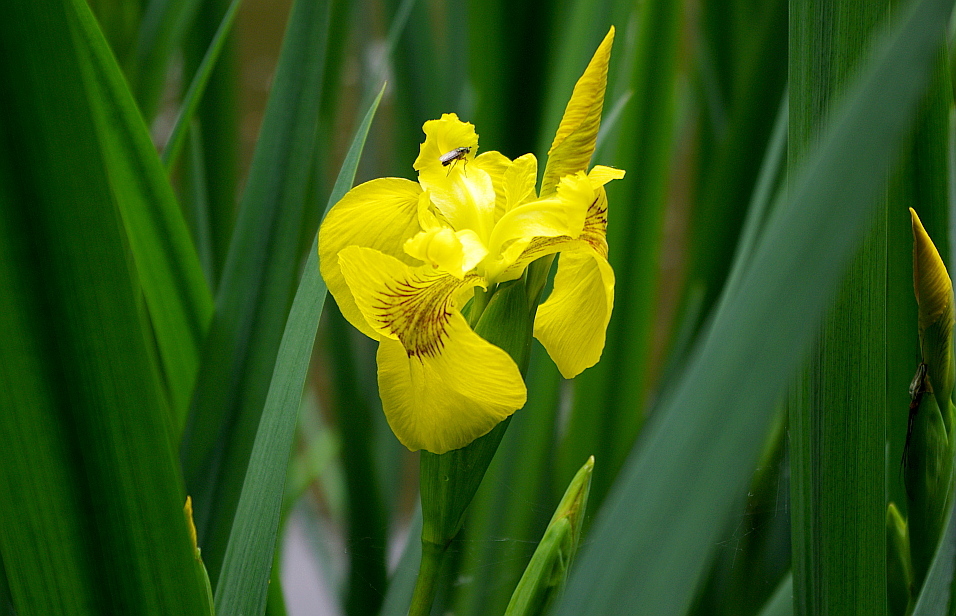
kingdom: Plantae
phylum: Tracheophyta
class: Liliopsida
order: Asparagales
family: Iridaceae
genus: Iris
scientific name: Iris pseudacorus
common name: Yellow flag
